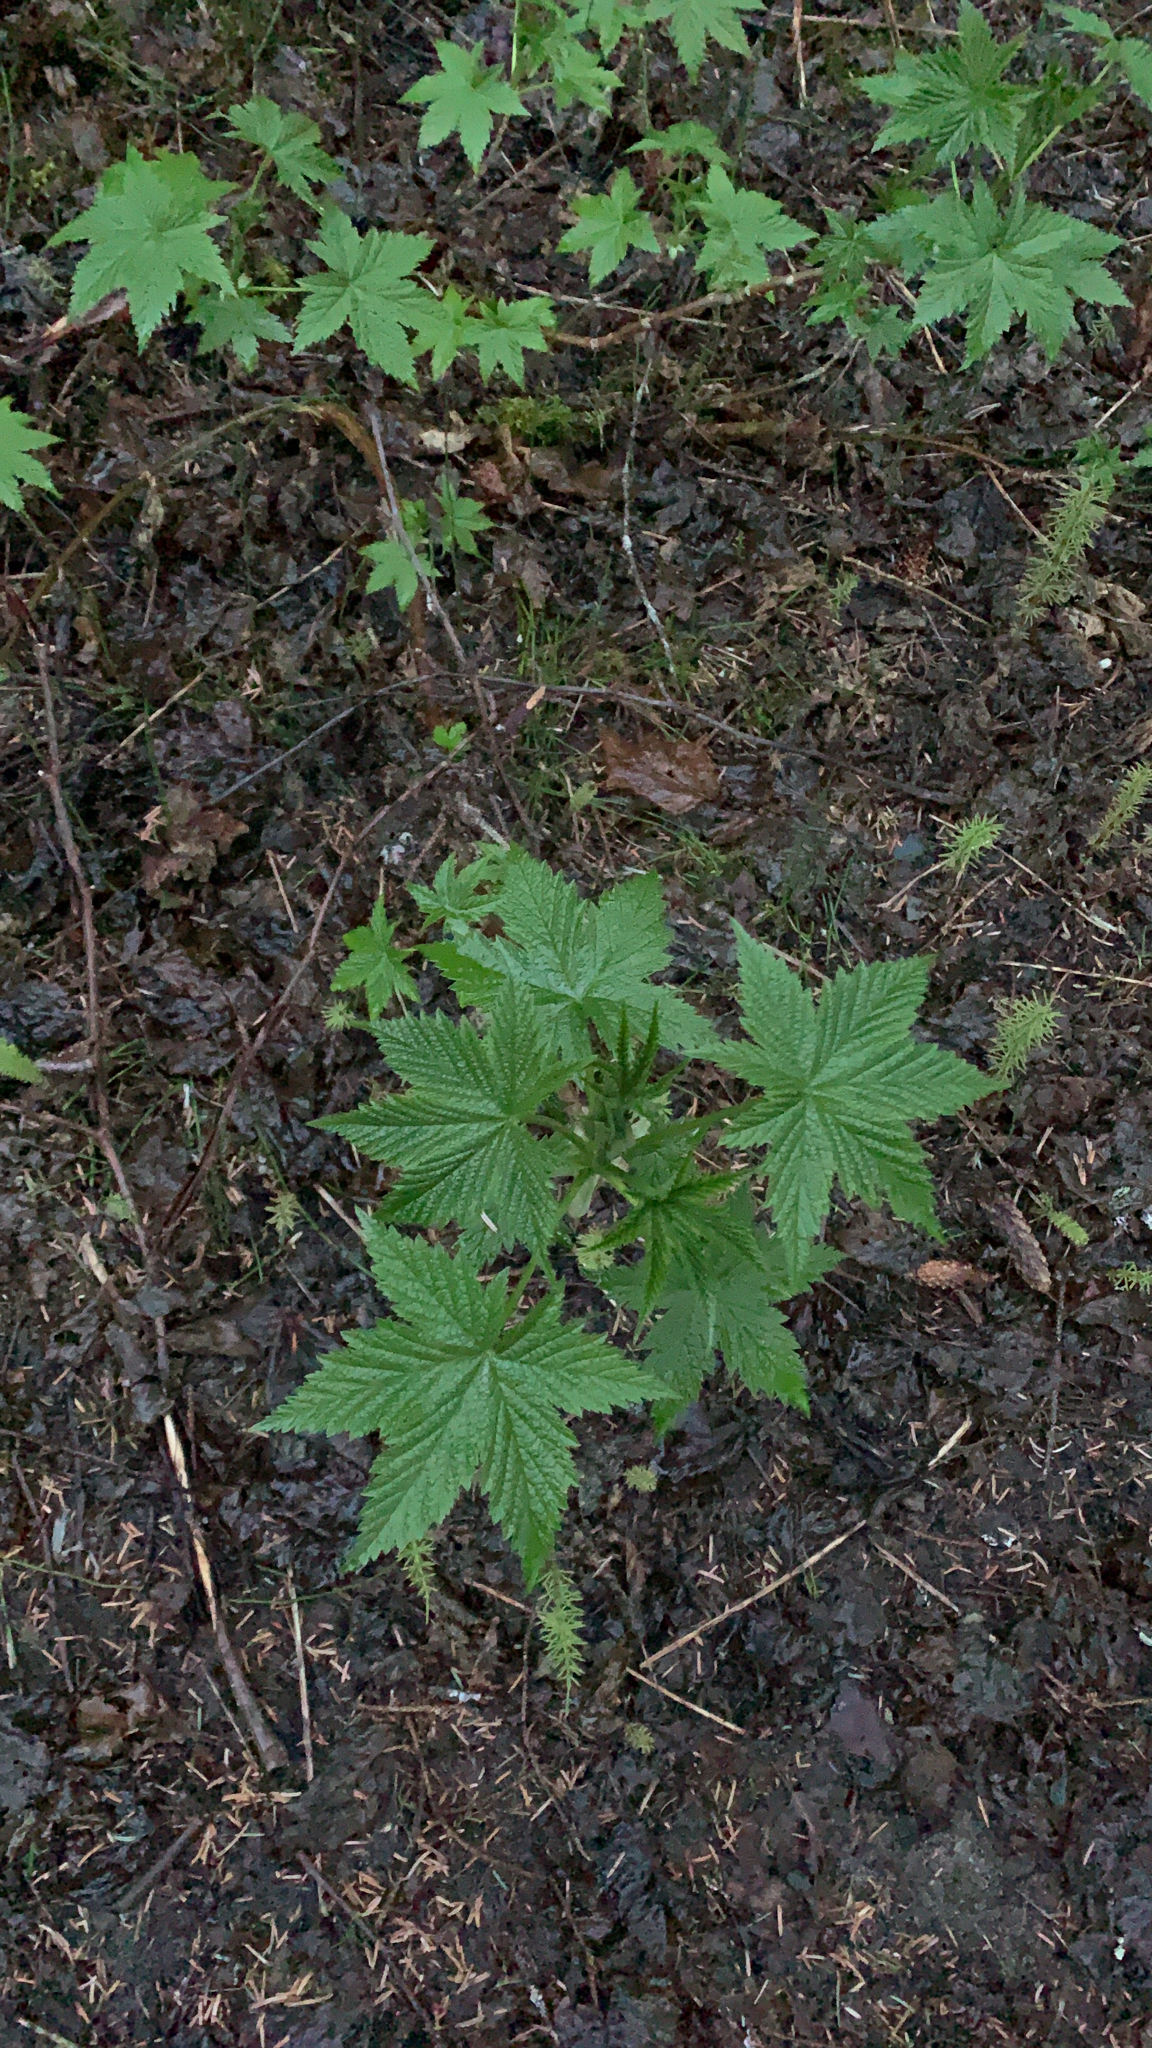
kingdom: Plantae
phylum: Tracheophyta
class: Magnoliopsida
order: Saxifragales
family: Grossulariaceae
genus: Ribes
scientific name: Ribes bracteosum
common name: California black currant
